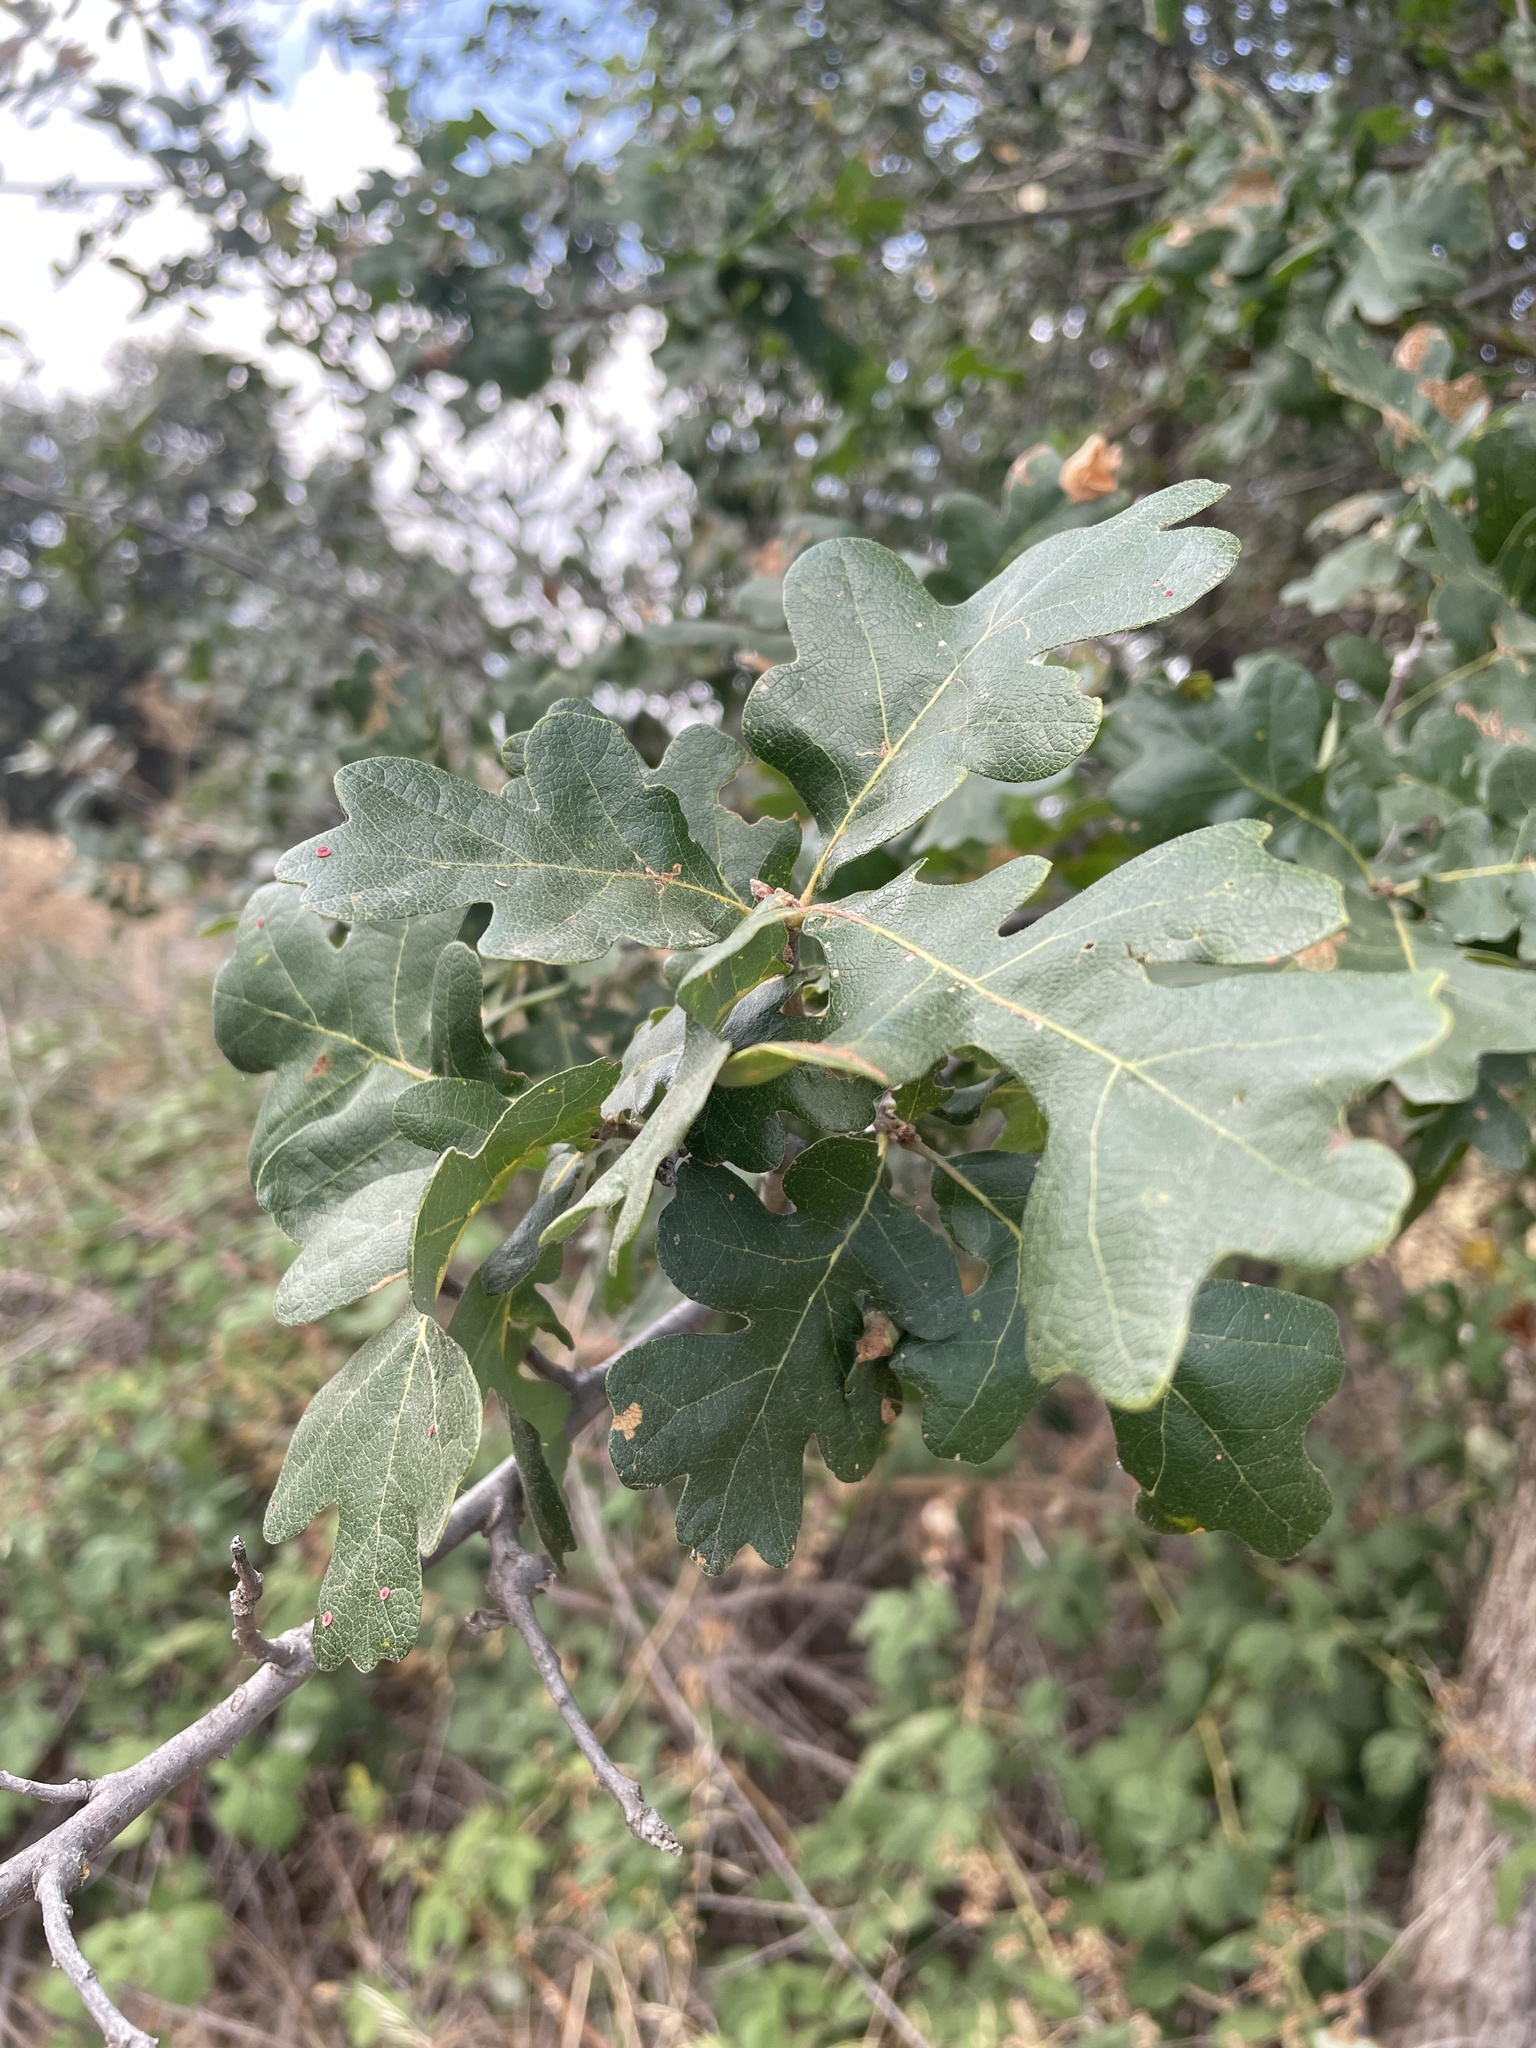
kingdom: Plantae
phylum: Tracheophyta
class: Magnoliopsida
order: Fagales
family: Fagaceae
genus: Quercus
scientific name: Quercus lobata
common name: Valley oak
